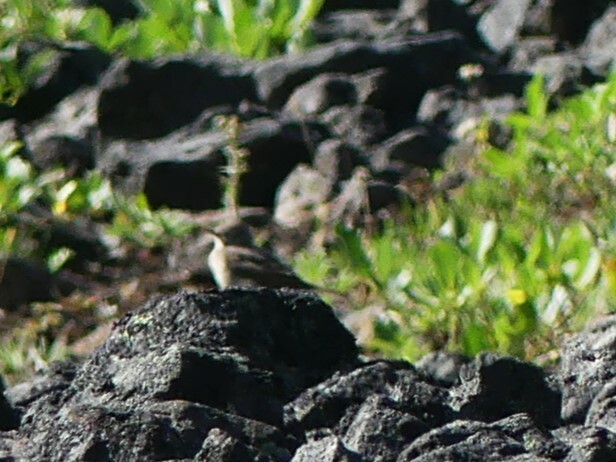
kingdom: Animalia
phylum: Chordata
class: Aves
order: Passeriformes
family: Motacillidae
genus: Anthus
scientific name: Anthus rubescens
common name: Buff-bellied pipit
